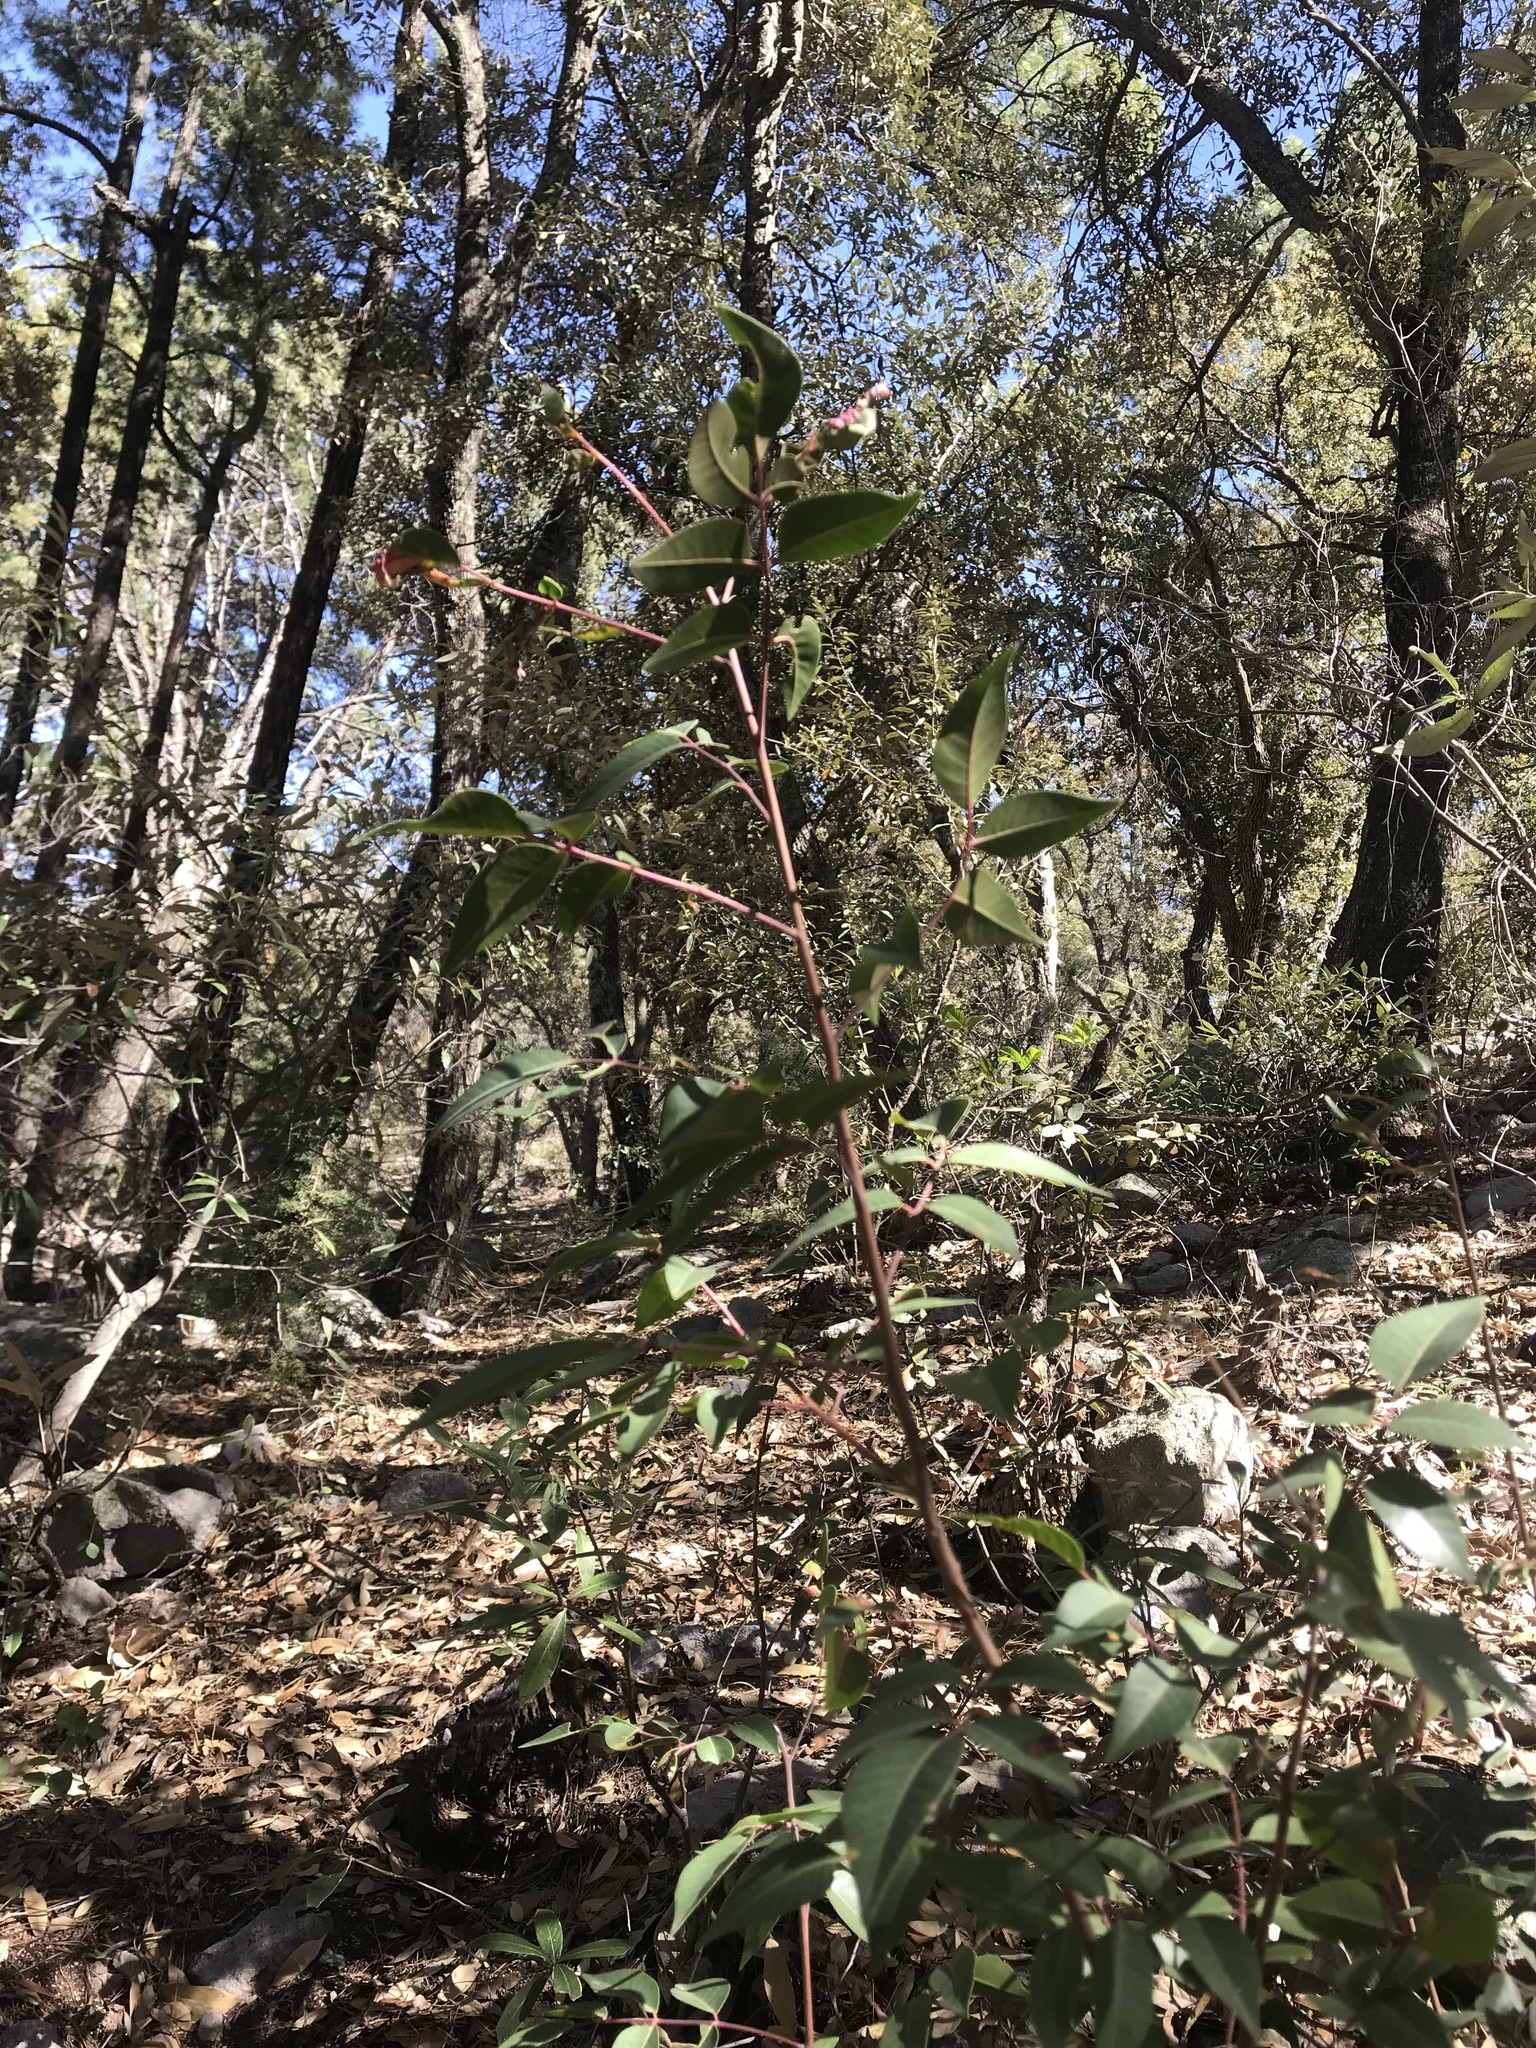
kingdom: Plantae
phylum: Tracheophyta
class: Magnoliopsida
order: Ericales
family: Ericaceae
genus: Arbutus
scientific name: Arbutus arizonica
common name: Arizona madrone
